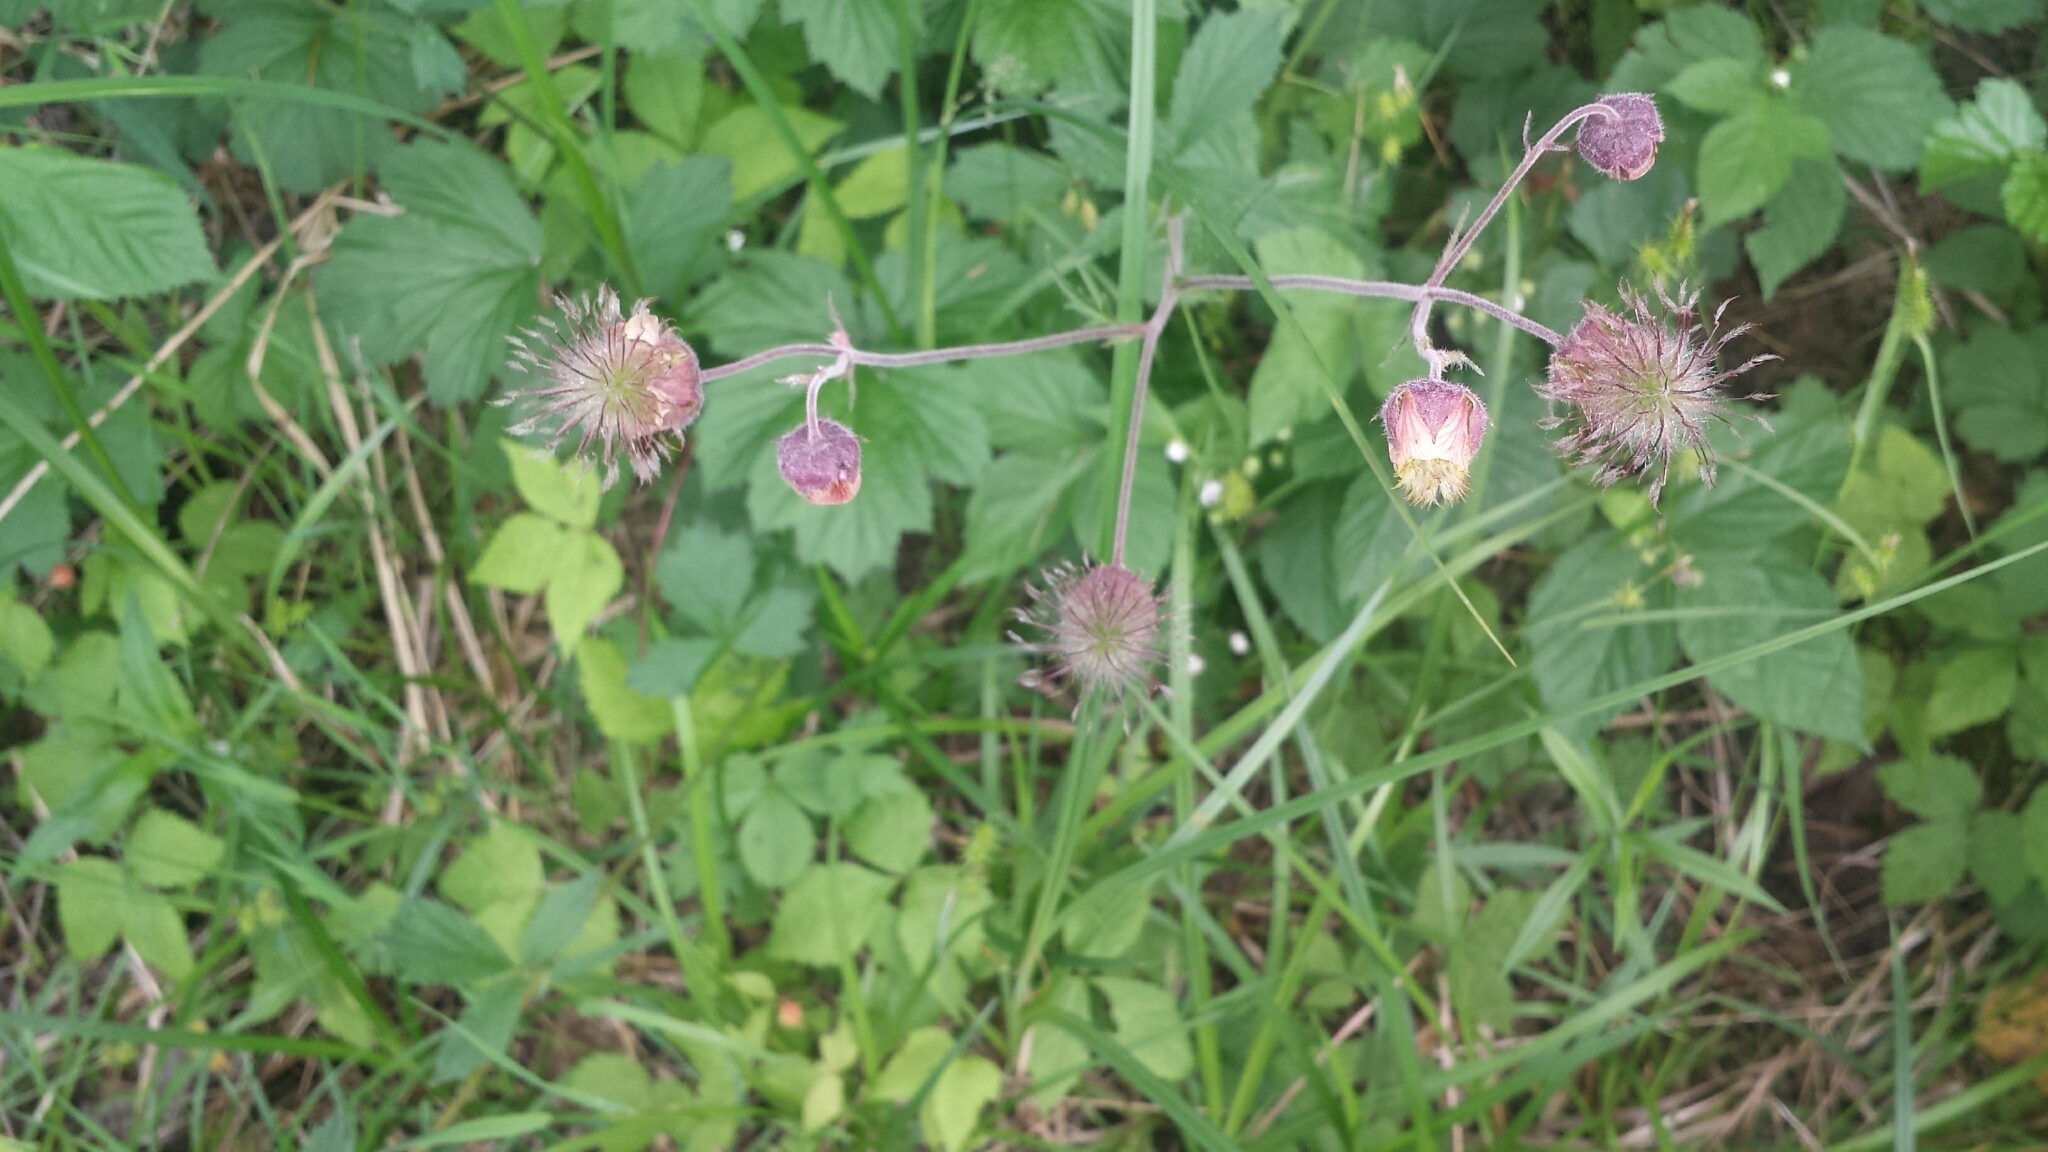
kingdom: Plantae
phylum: Tracheophyta
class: Magnoliopsida
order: Rosales
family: Rosaceae
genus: Geum
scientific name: Geum rivale
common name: Water avens
